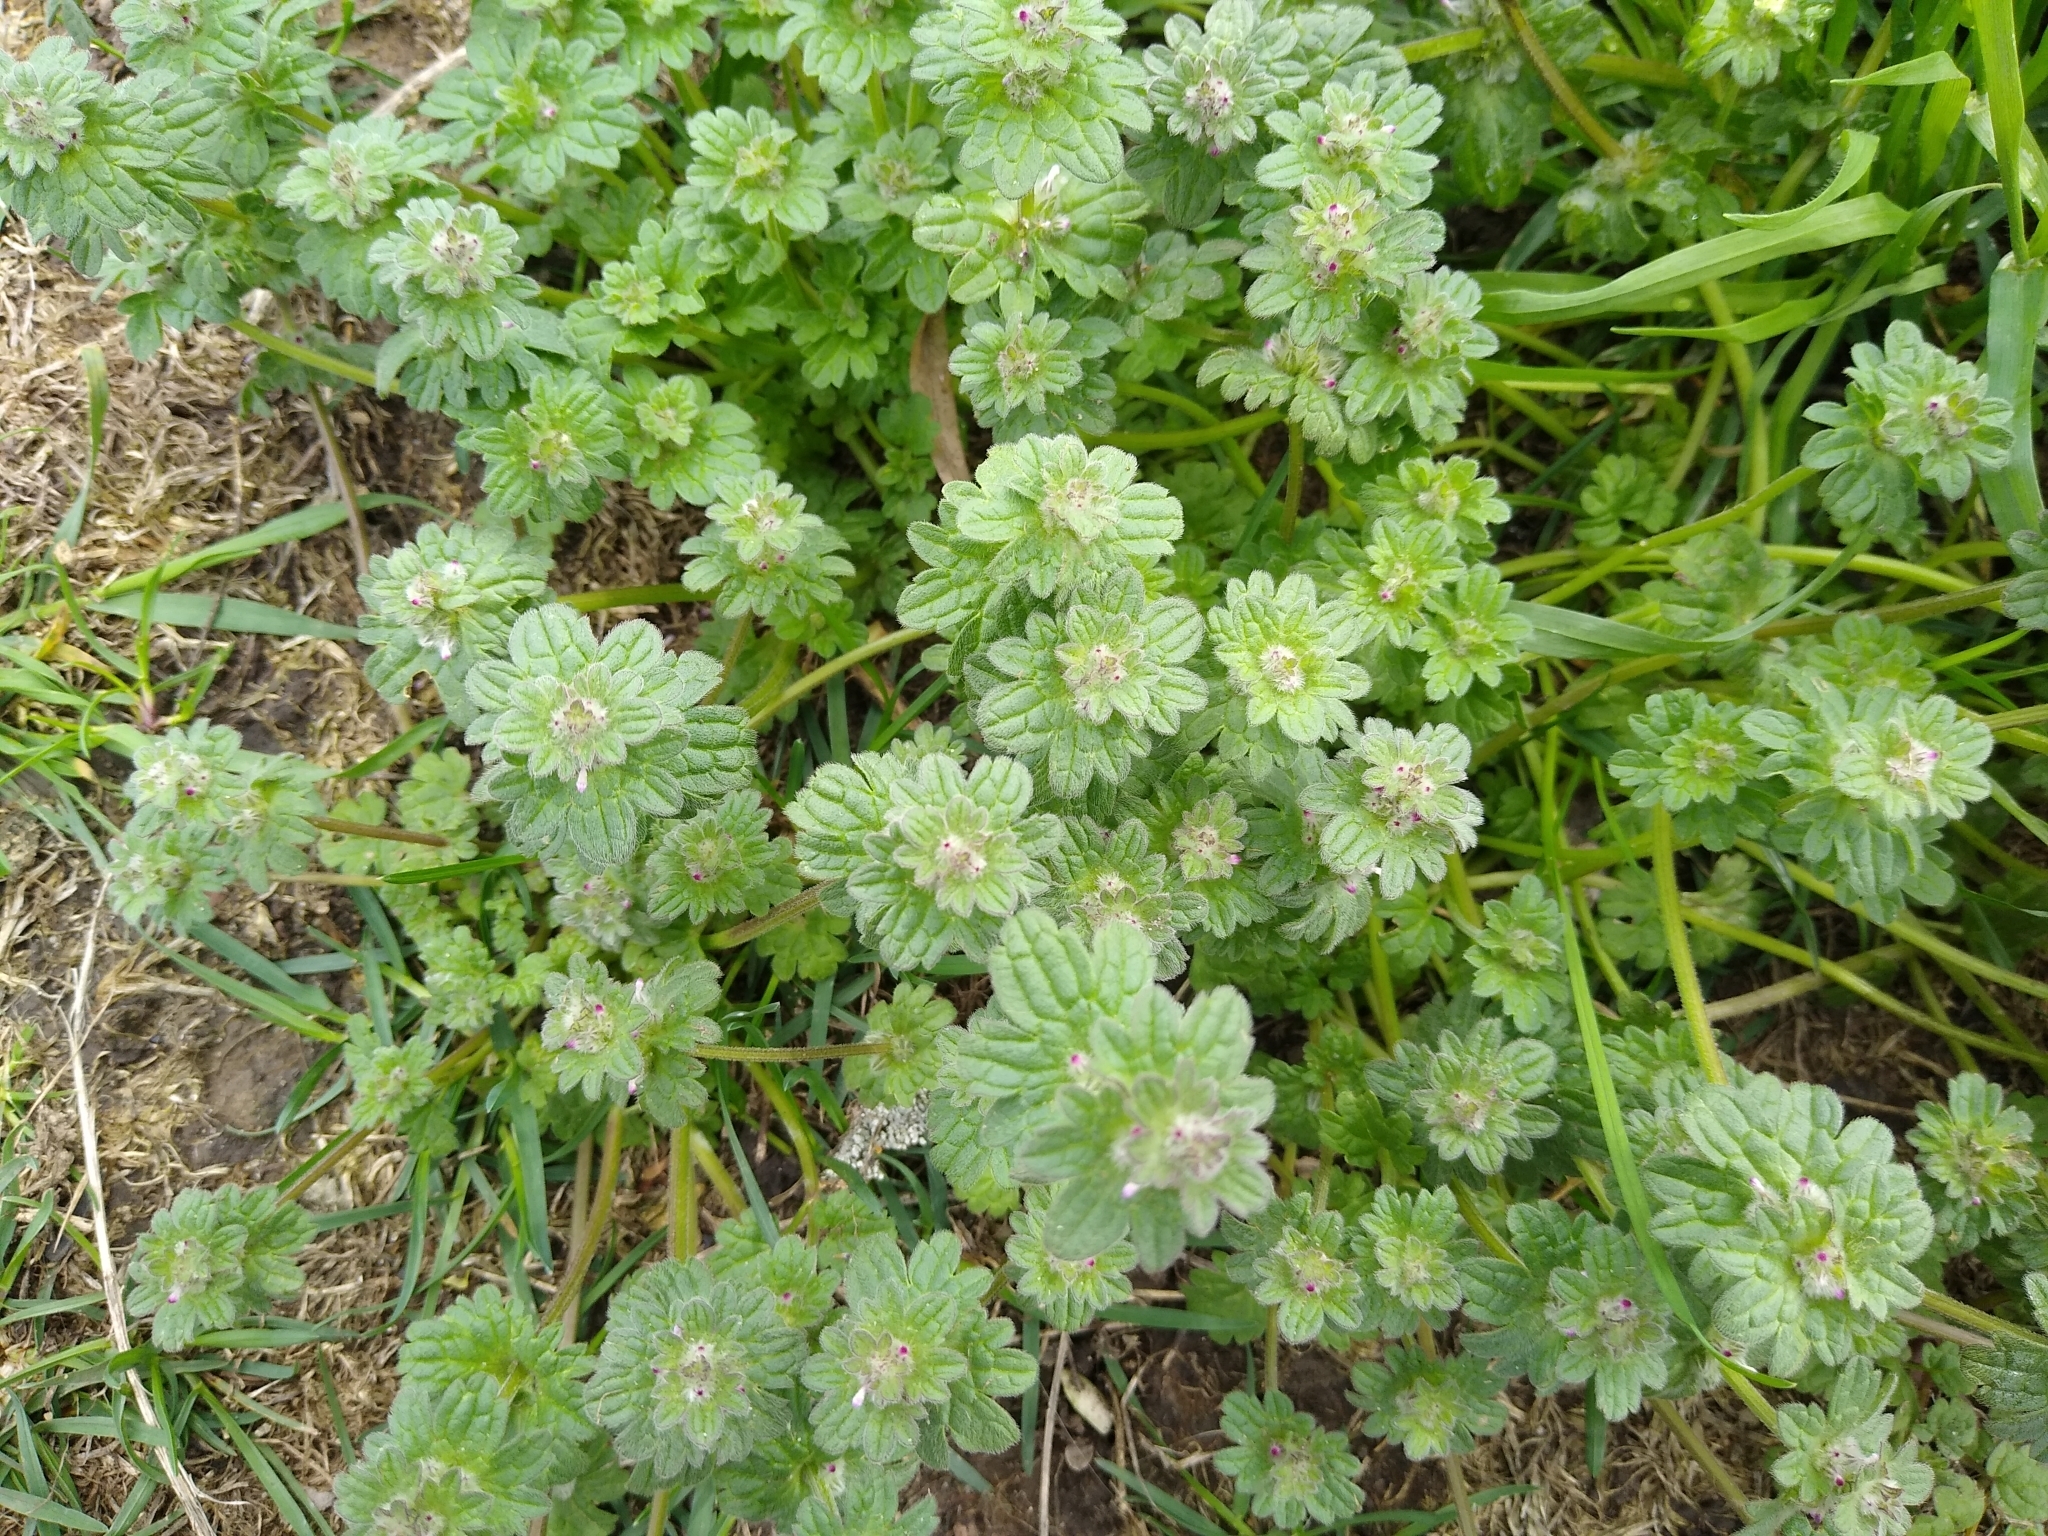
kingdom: Plantae
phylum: Tracheophyta
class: Magnoliopsida
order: Lamiales
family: Lamiaceae
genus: Lamium
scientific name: Lamium amplexicaule
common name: Henbit dead-nettle
